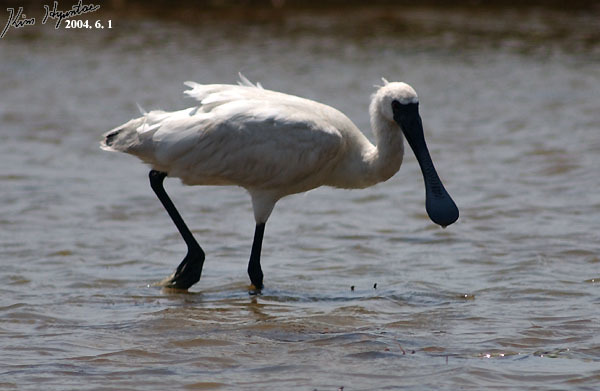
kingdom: Animalia
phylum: Chordata
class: Aves
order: Pelecaniformes
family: Threskiornithidae
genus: Platalea
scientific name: Platalea minor
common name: Black-faced spoonbill
